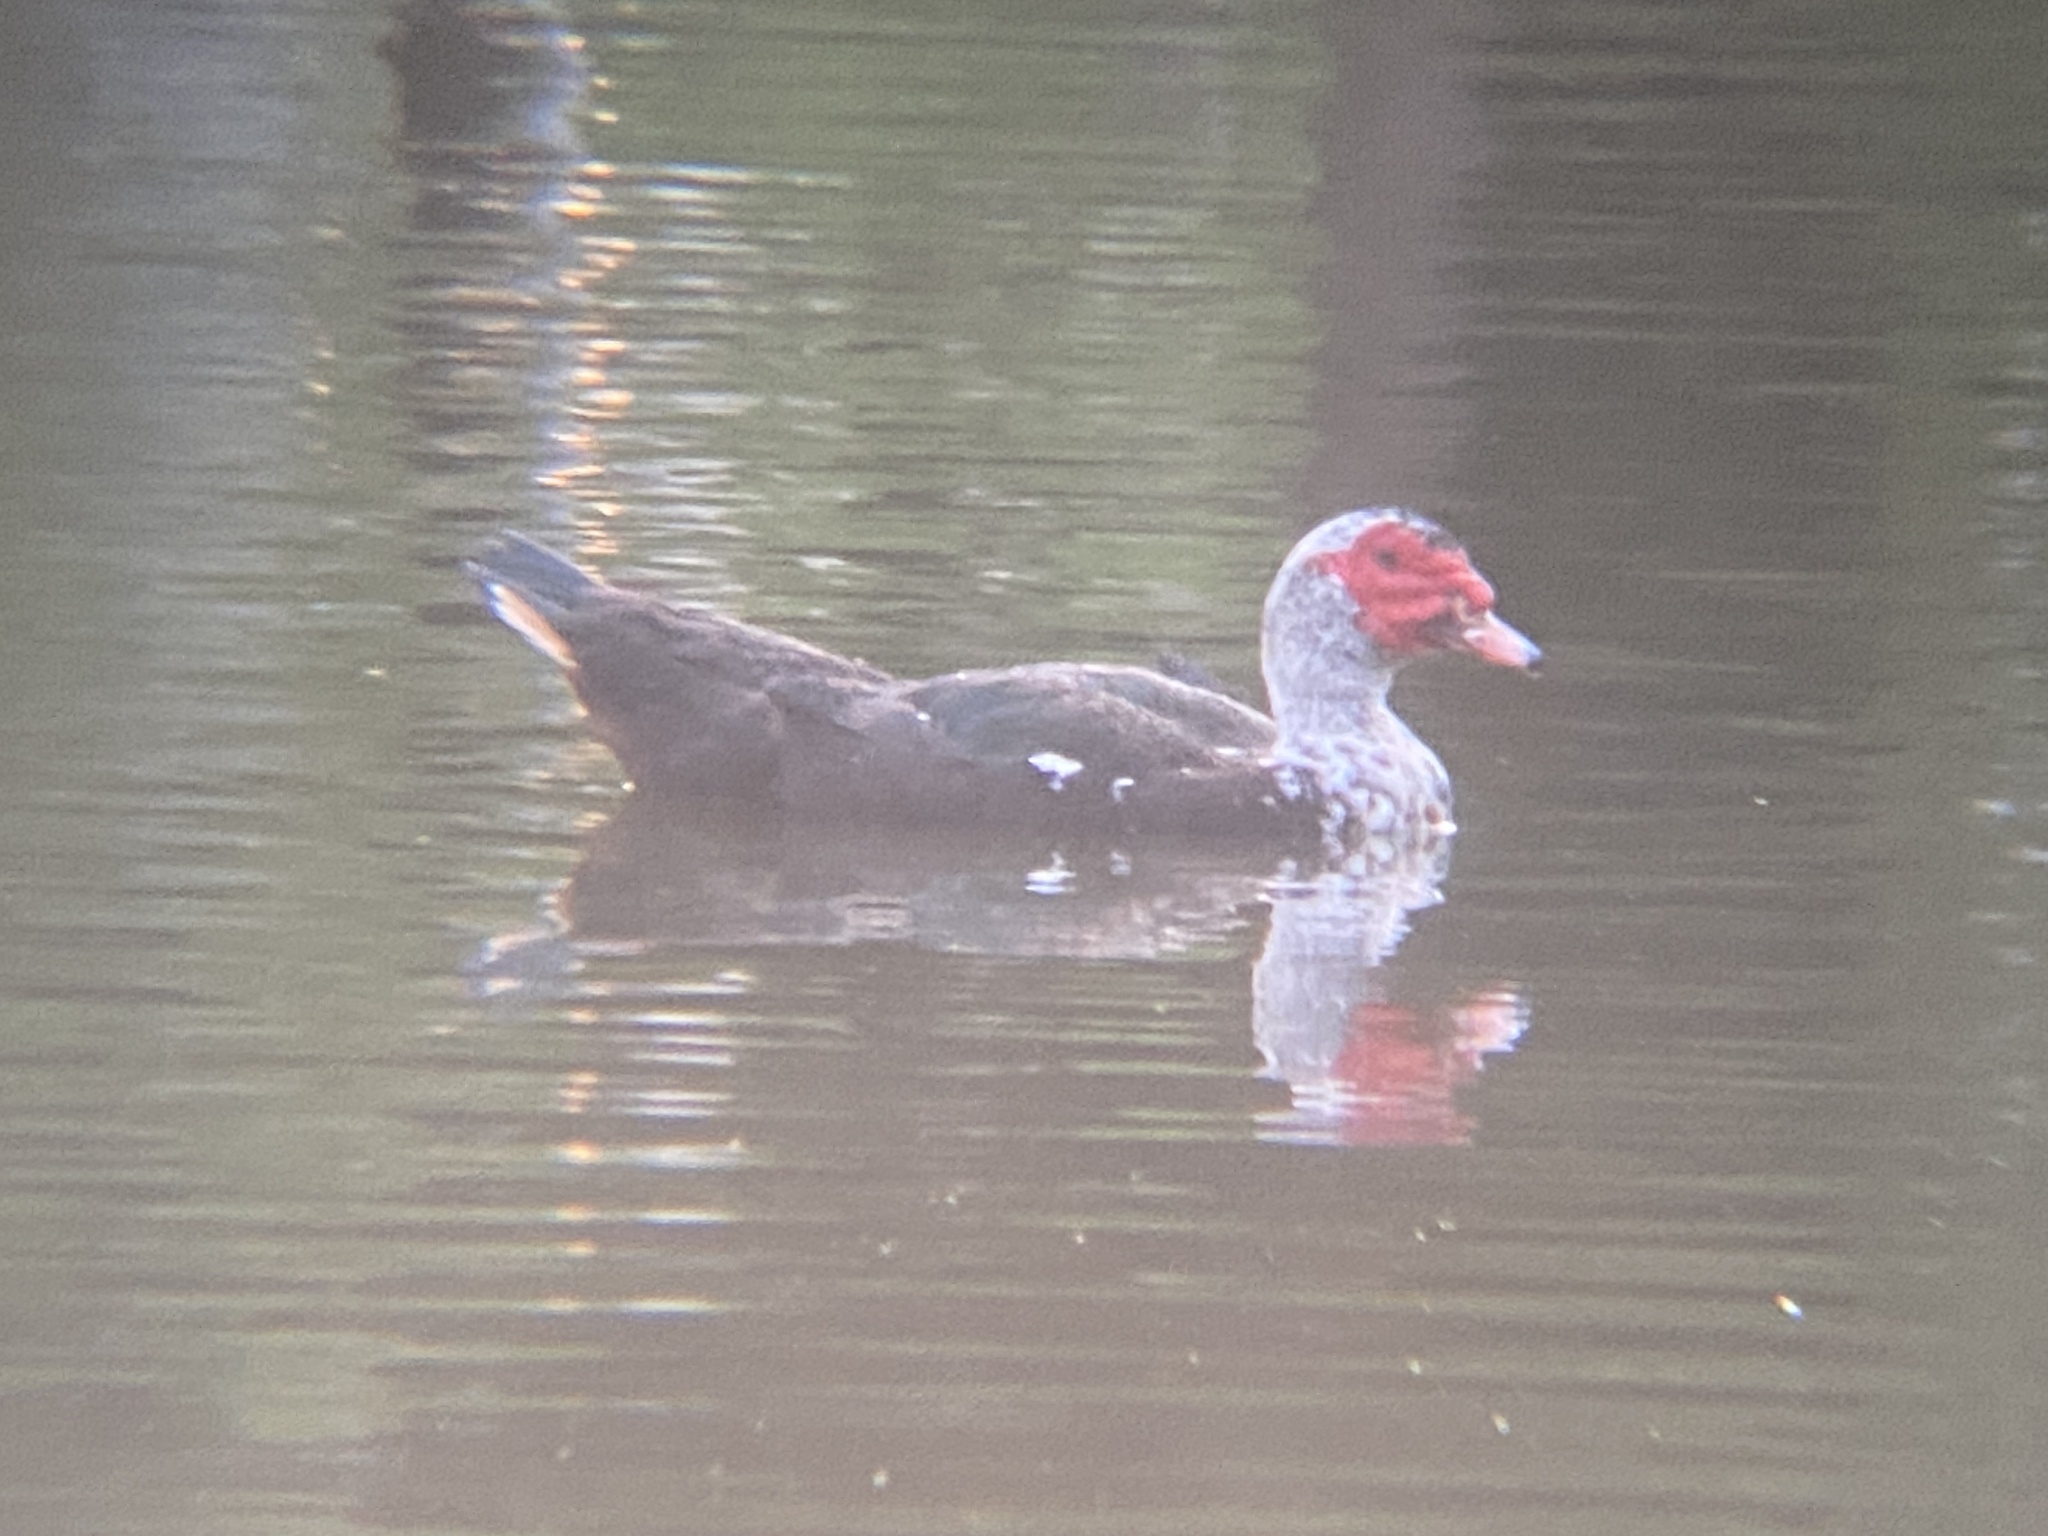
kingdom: Animalia
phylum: Chordata
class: Aves
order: Anseriformes
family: Anatidae
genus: Cairina
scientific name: Cairina moschata
